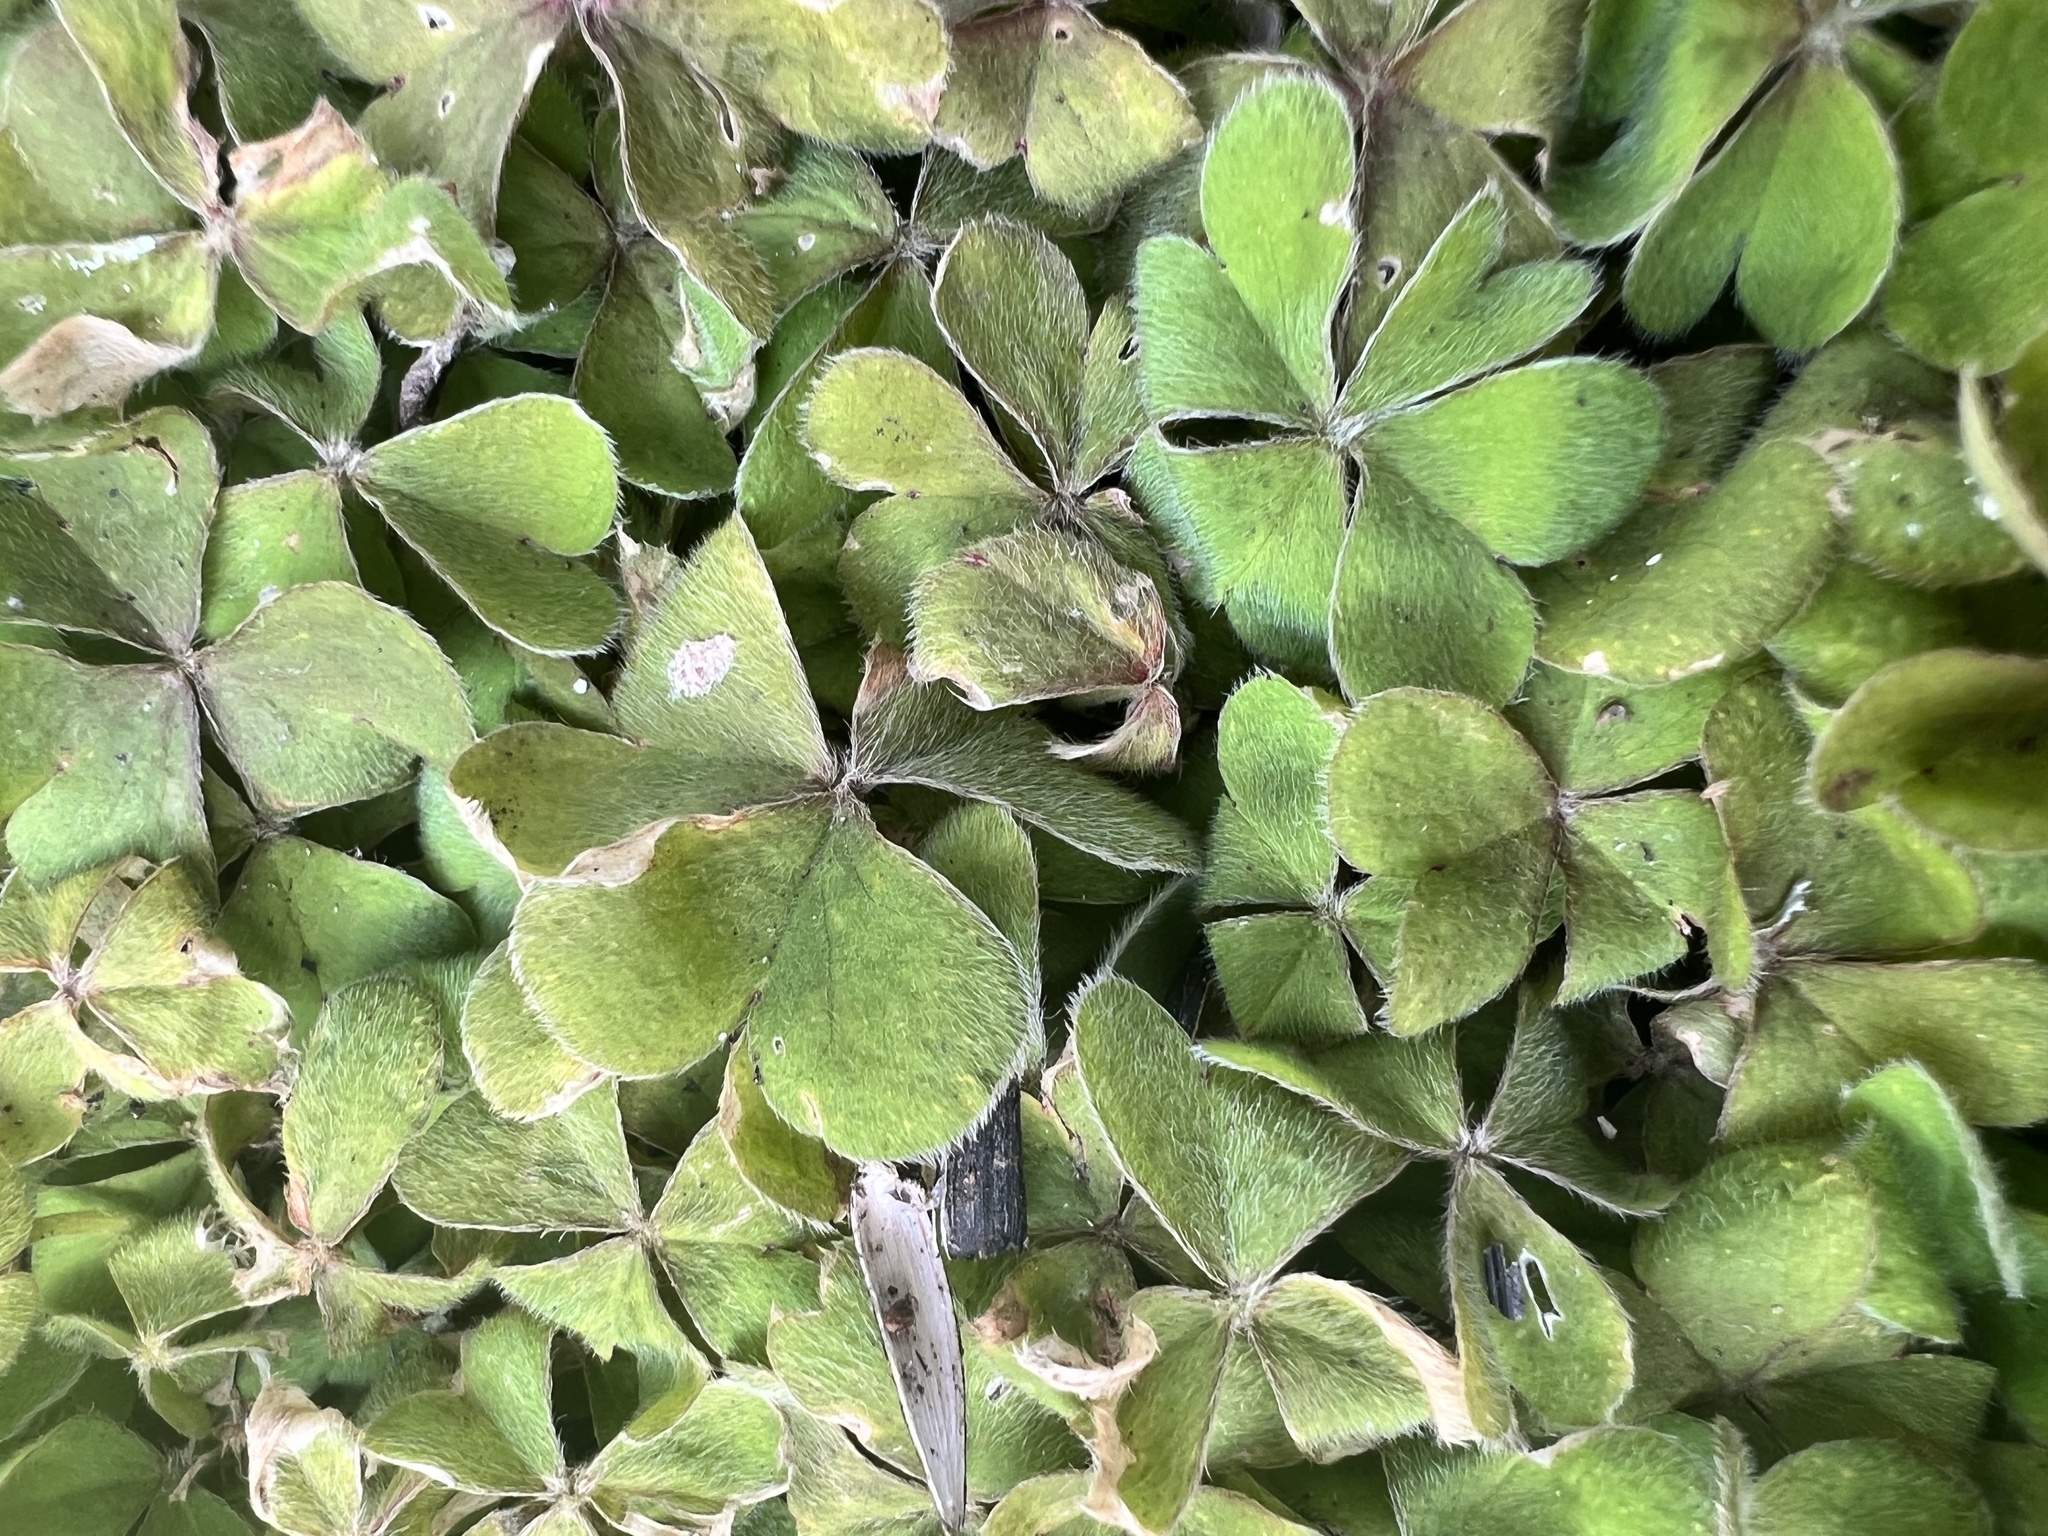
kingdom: Plantae
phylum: Tracheophyta
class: Magnoliopsida
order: Oxalidales
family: Oxalidaceae
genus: Oxalis
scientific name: Oxalis oregana
